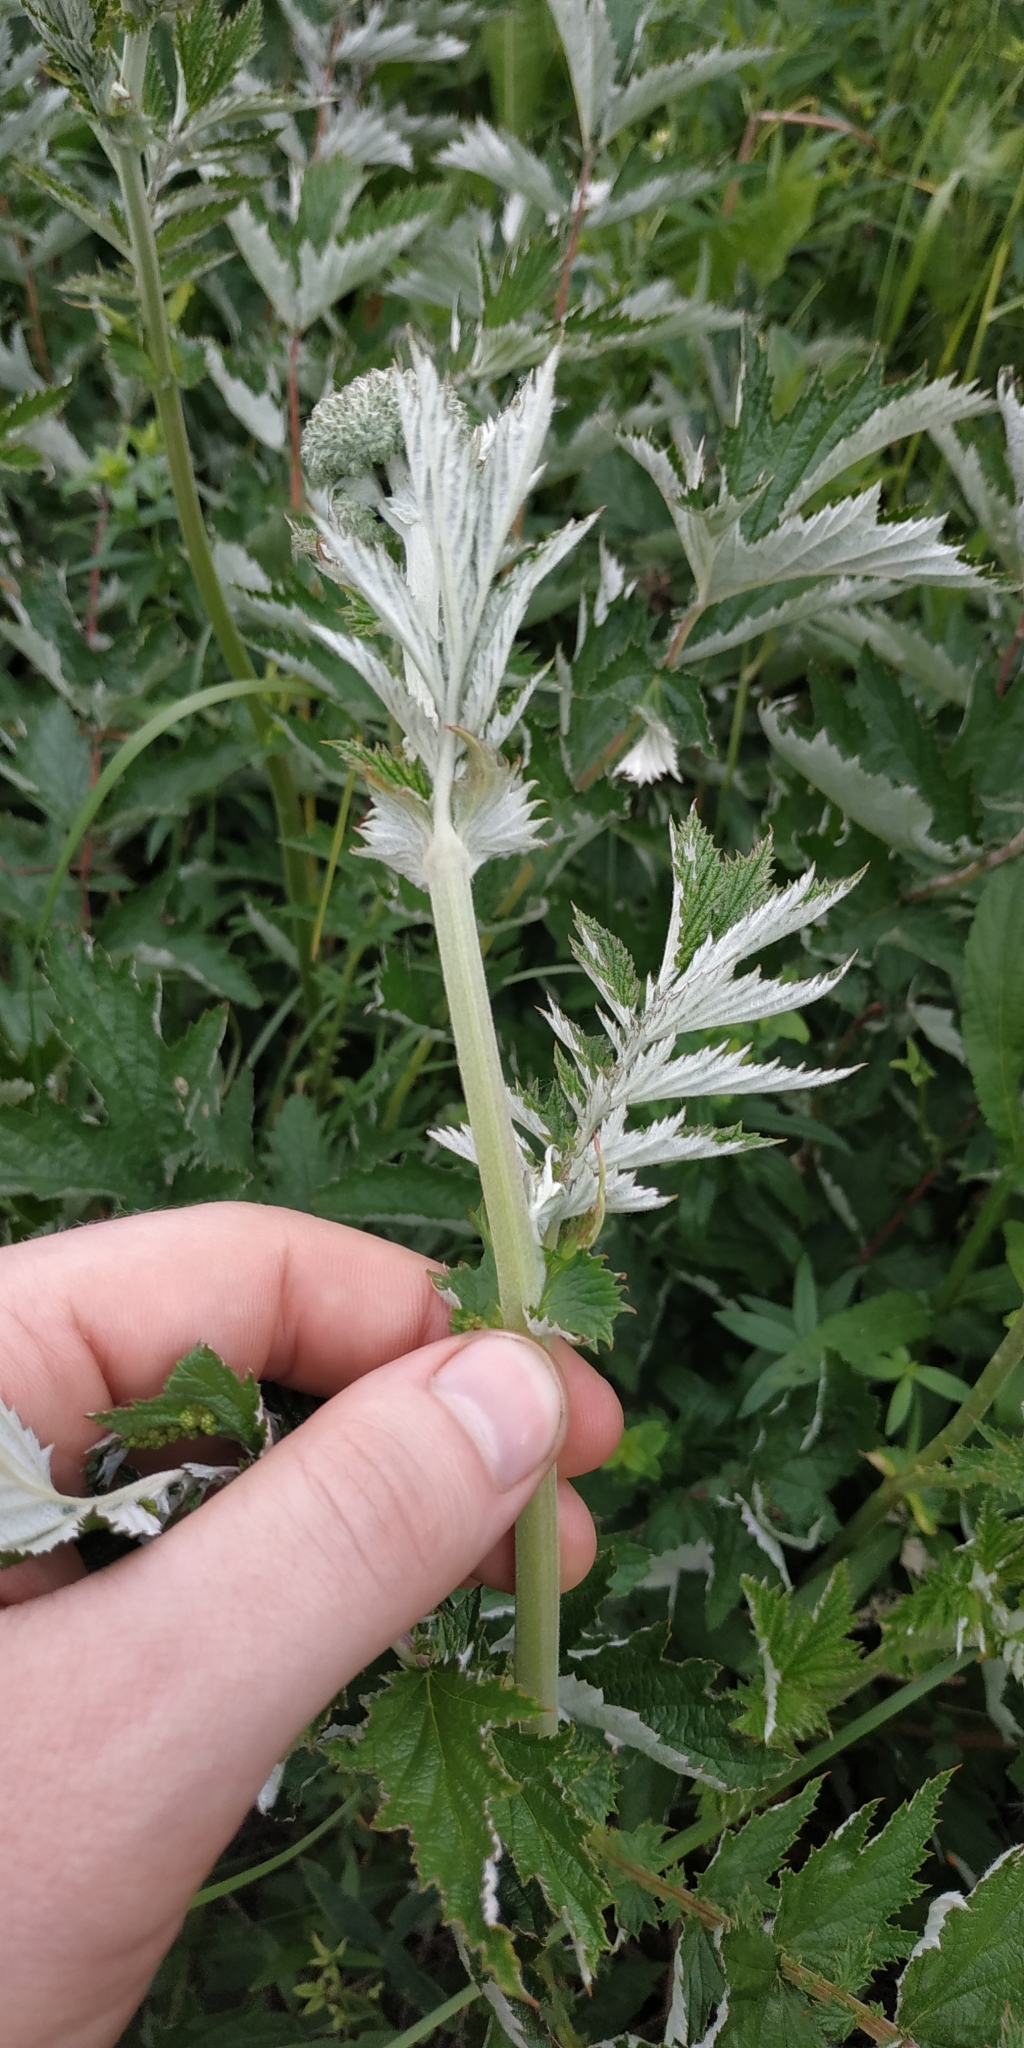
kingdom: Plantae
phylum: Tracheophyta
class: Magnoliopsida
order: Rosales
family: Rosaceae
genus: Filipendula
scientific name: Filipendula ulmaria
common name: Meadowsweet
